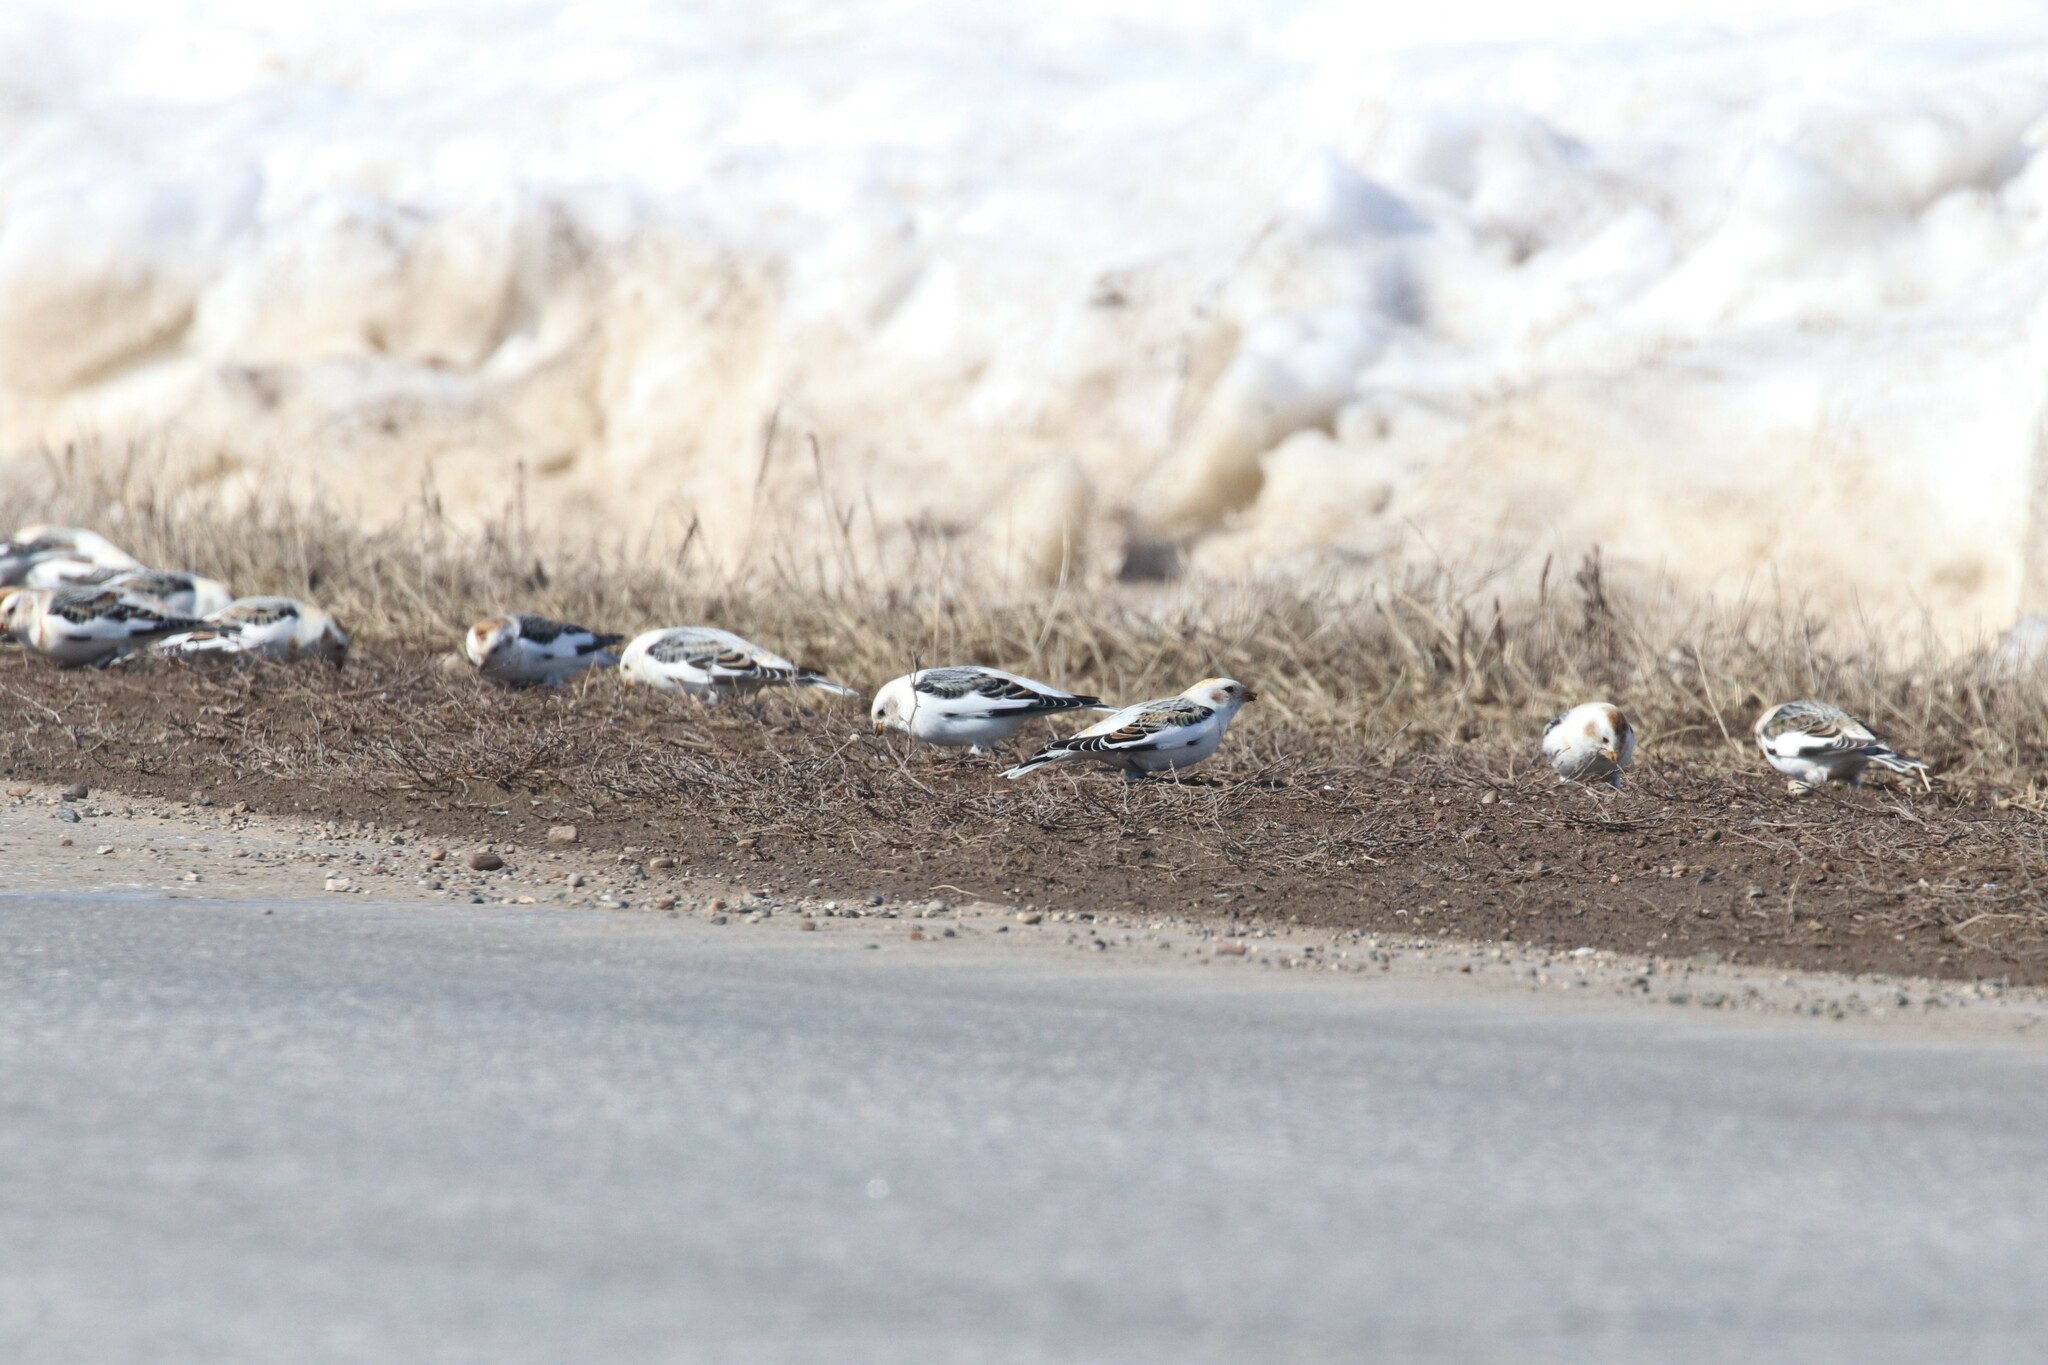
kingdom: Animalia
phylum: Chordata
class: Aves
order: Passeriformes
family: Calcariidae
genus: Plectrophenax
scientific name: Plectrophenax nivalis
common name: Snow bunting
